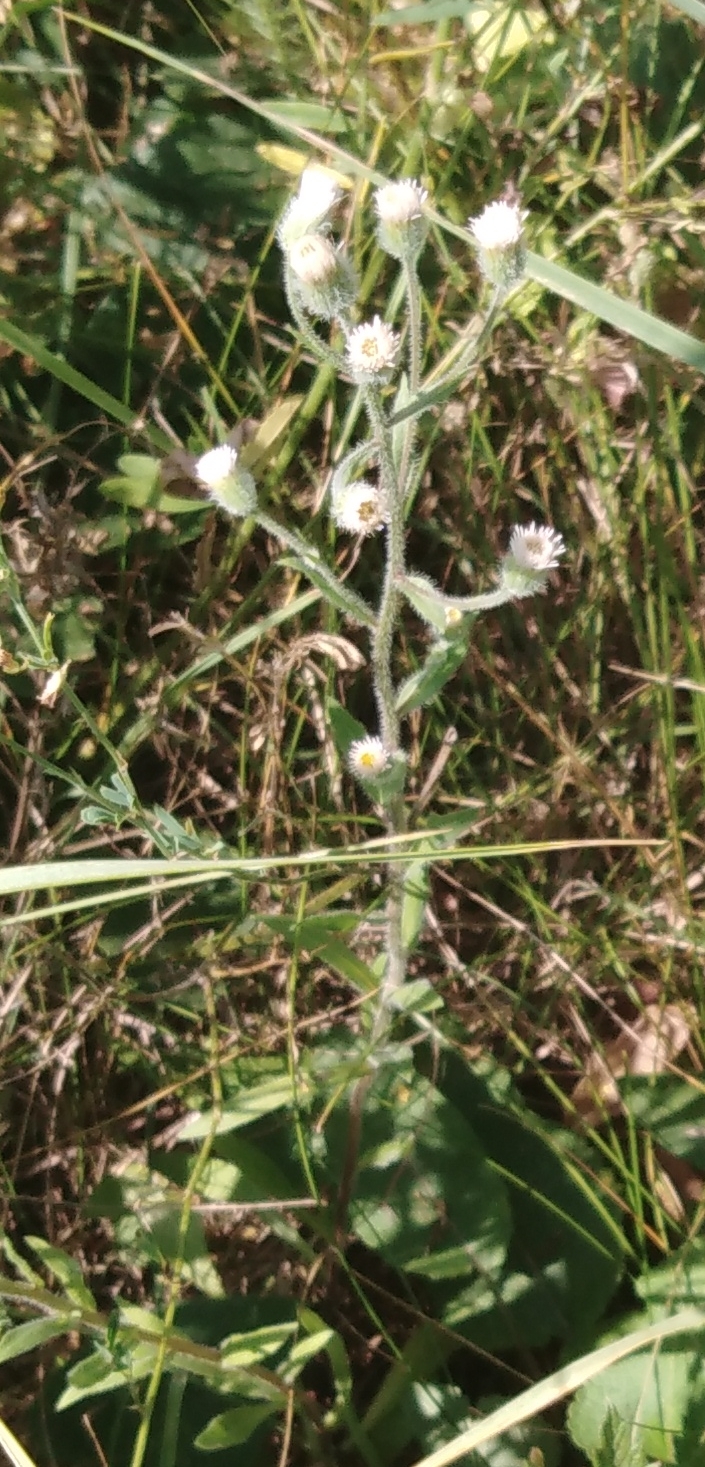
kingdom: Plantae
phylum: Tracheophyta
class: Magnoliopsida
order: Asterales
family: Asteraceae
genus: Erigeron
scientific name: Erigeron acris
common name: Blue fleabane
